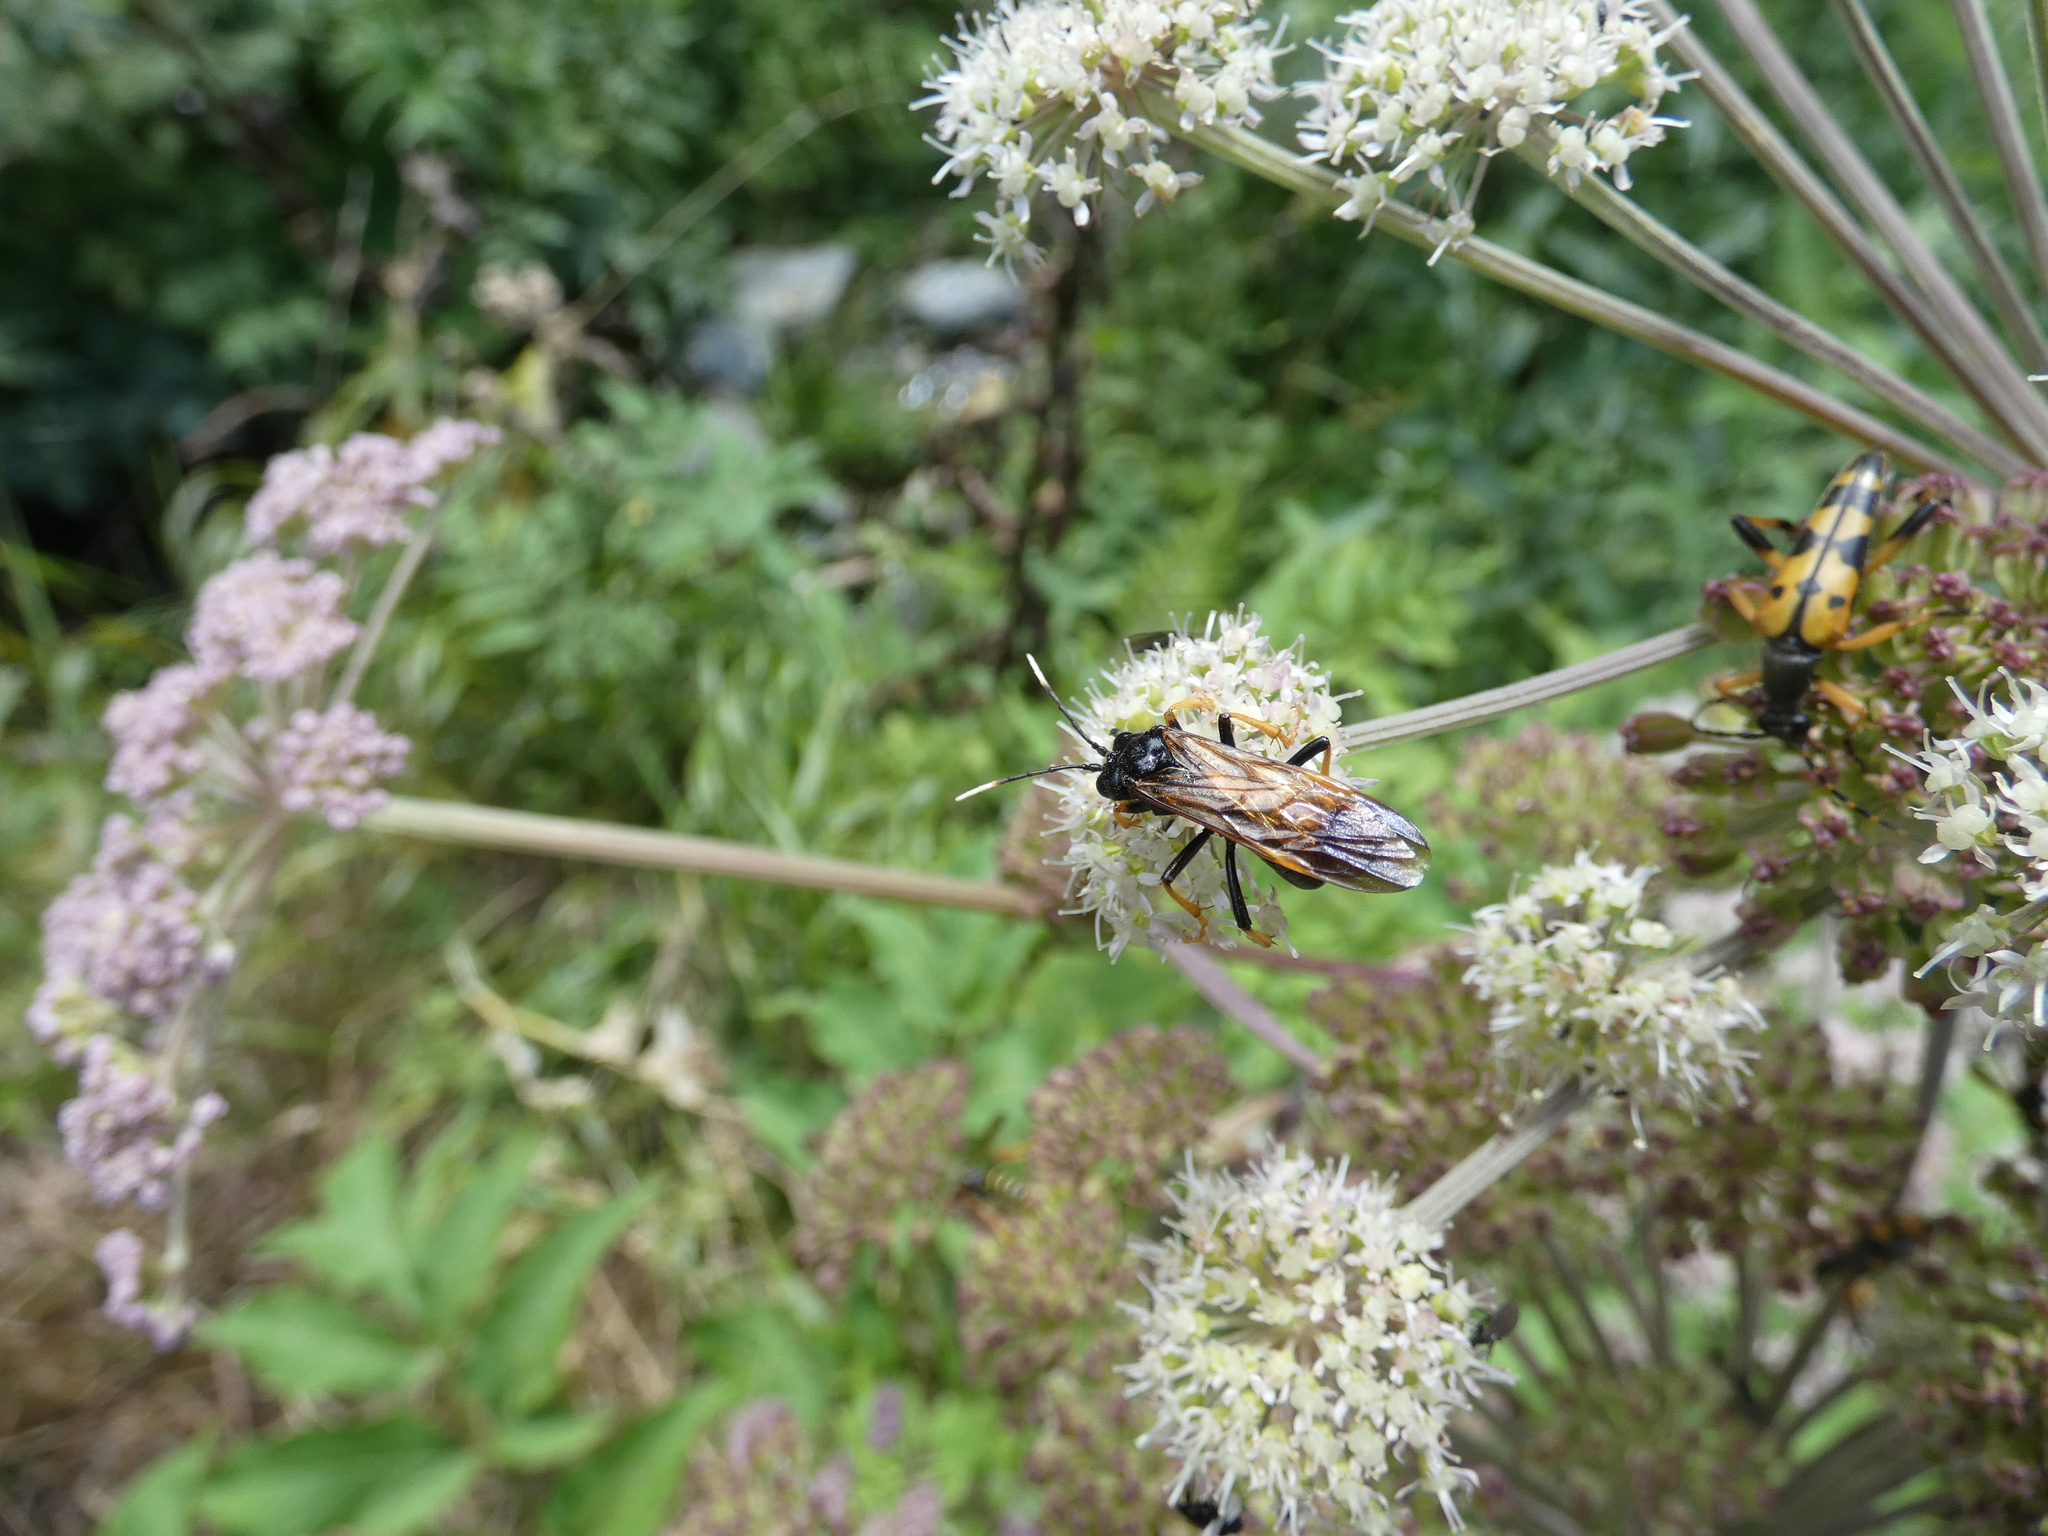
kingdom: Animalia
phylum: Arthropoda
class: Insecta
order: Hymenoptera
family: Tenthredinidae
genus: Tenthredo
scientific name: Tenthredo crassa
